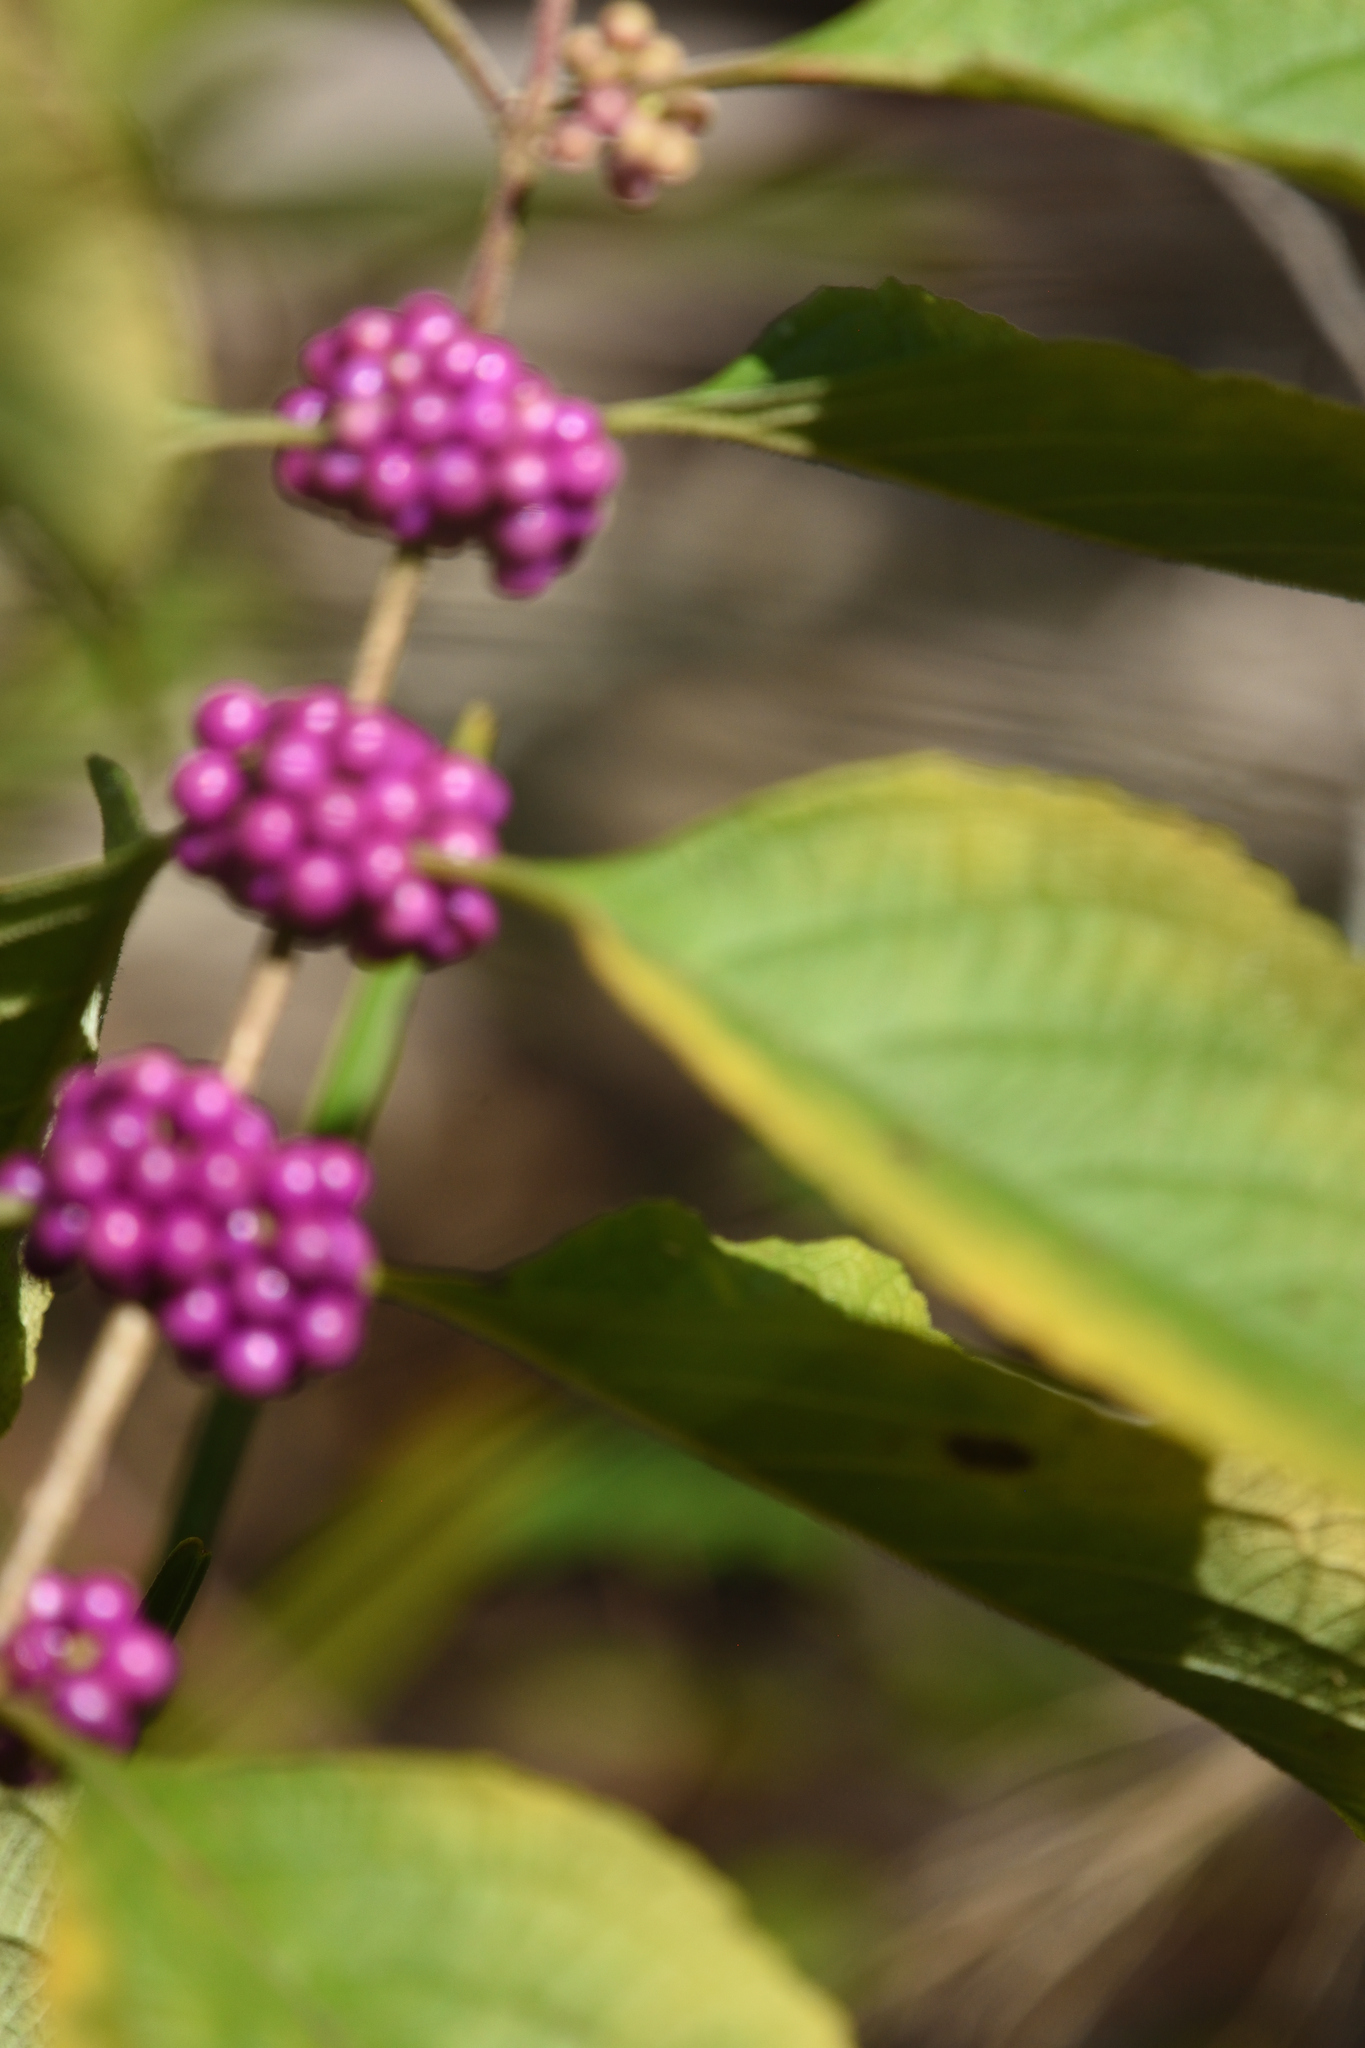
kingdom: Plantae
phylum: Tracheophyta
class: Magnoliopsida
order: Lamiales
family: Lamiaceae
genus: Callicarpa
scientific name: Callicarpa americana
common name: American beautyberry
